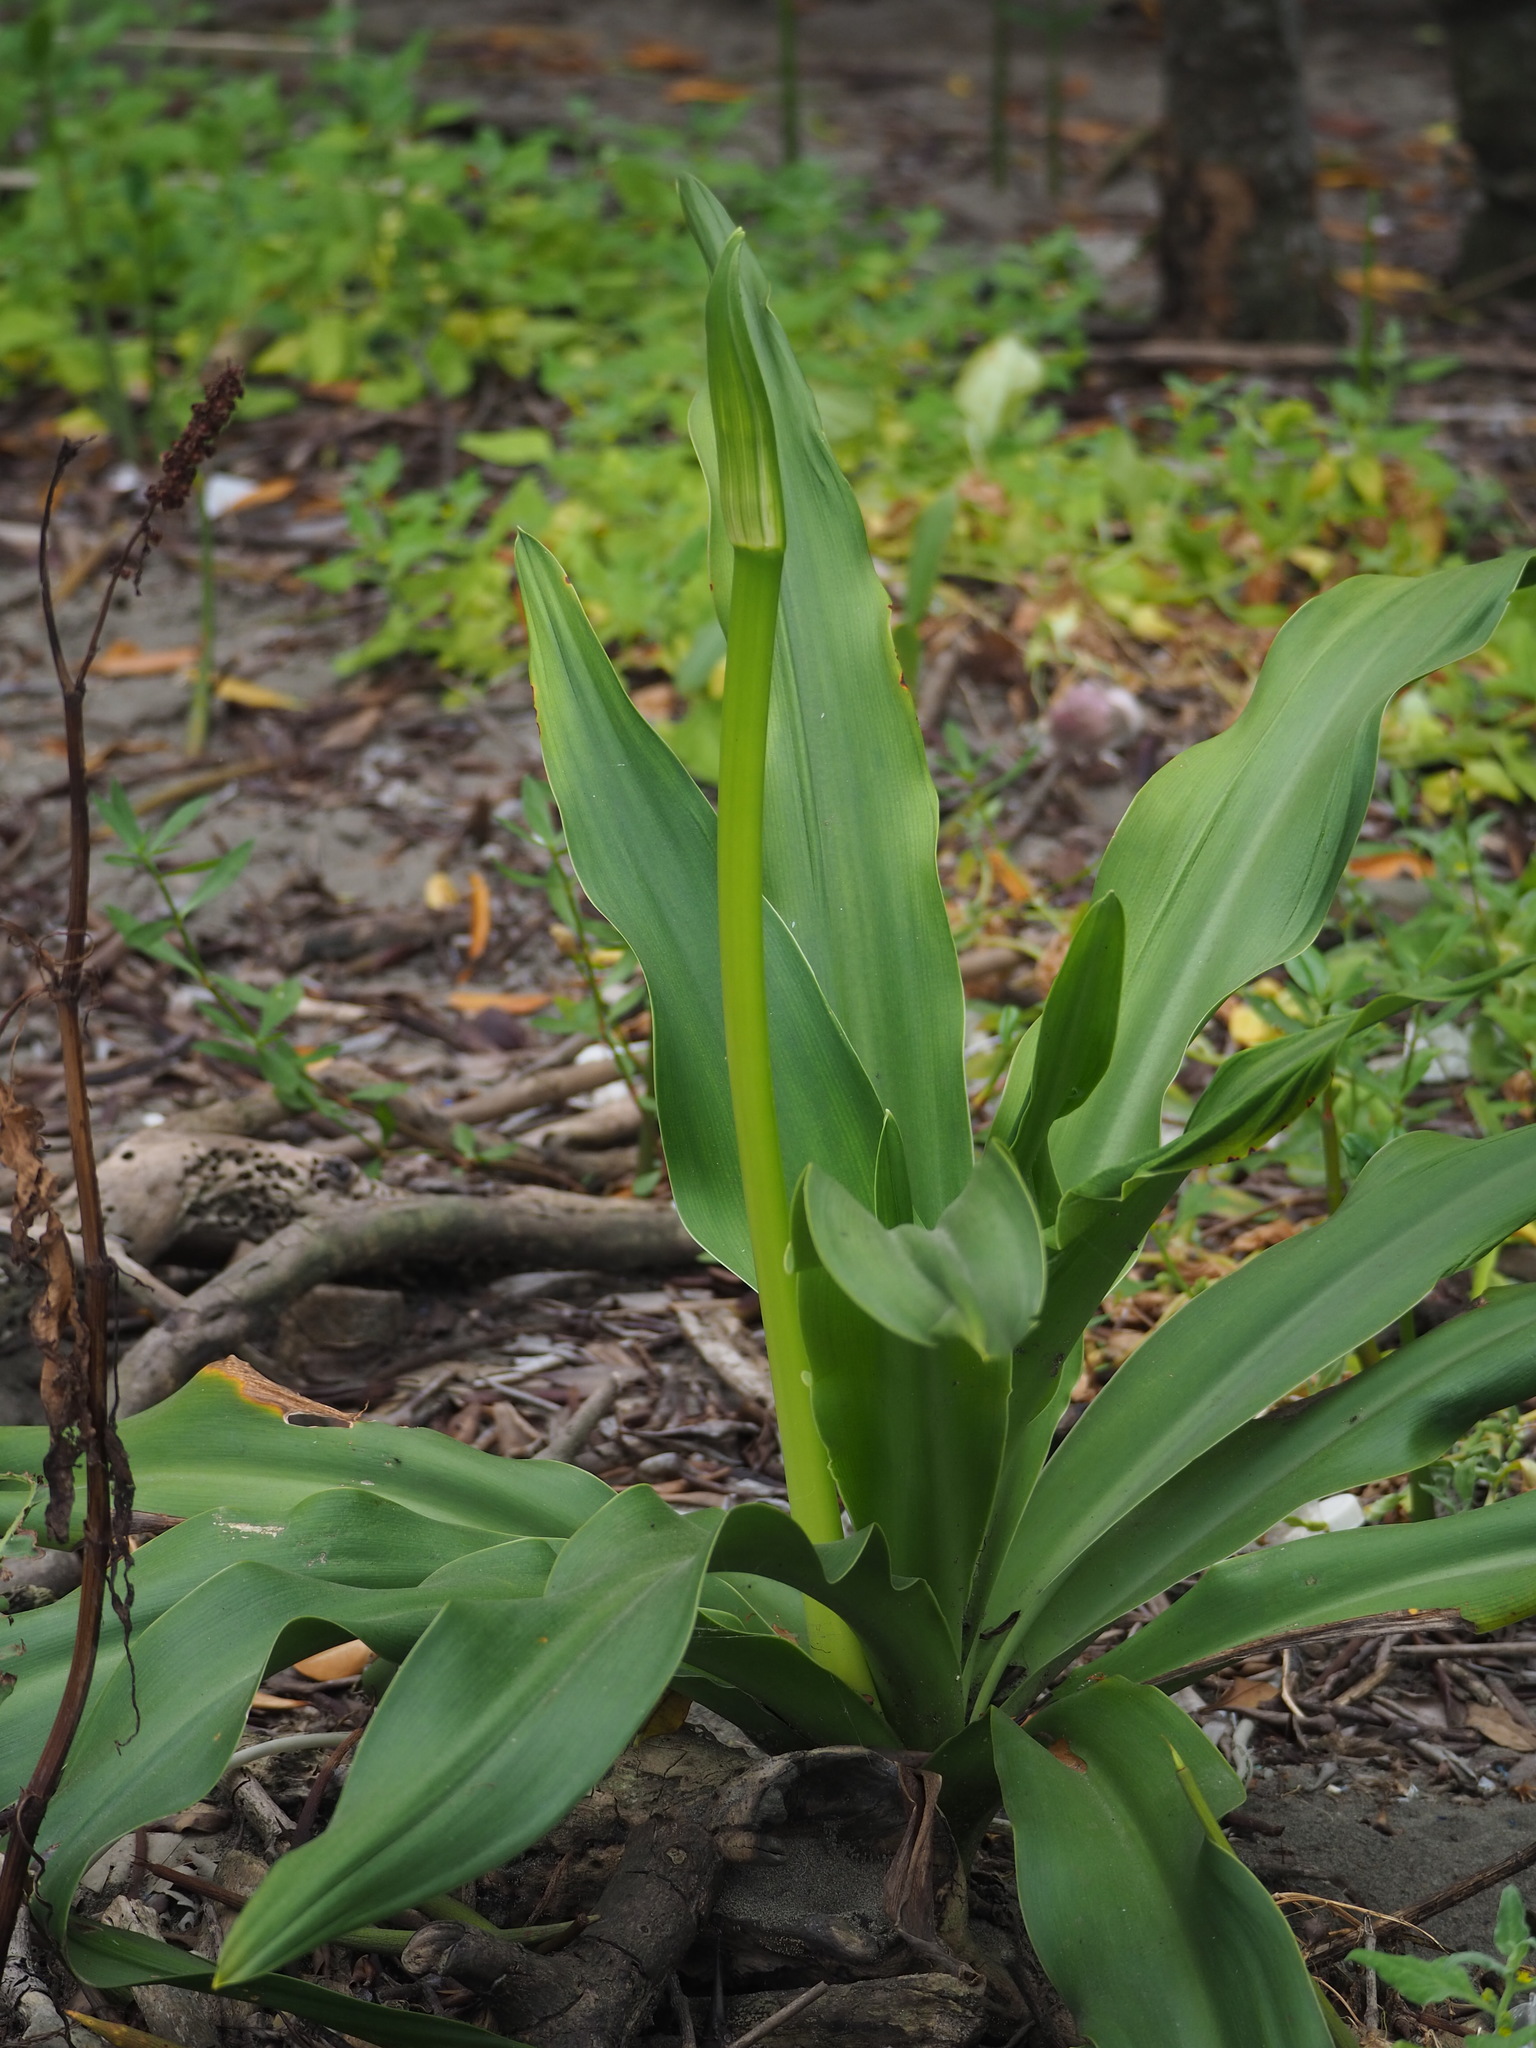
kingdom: Plantae
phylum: Tracheophyta
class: Liliopsida
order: Asparagales
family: Amaryllidaceae
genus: Crinum
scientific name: Crinum asiaticum
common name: Poisonbulb
